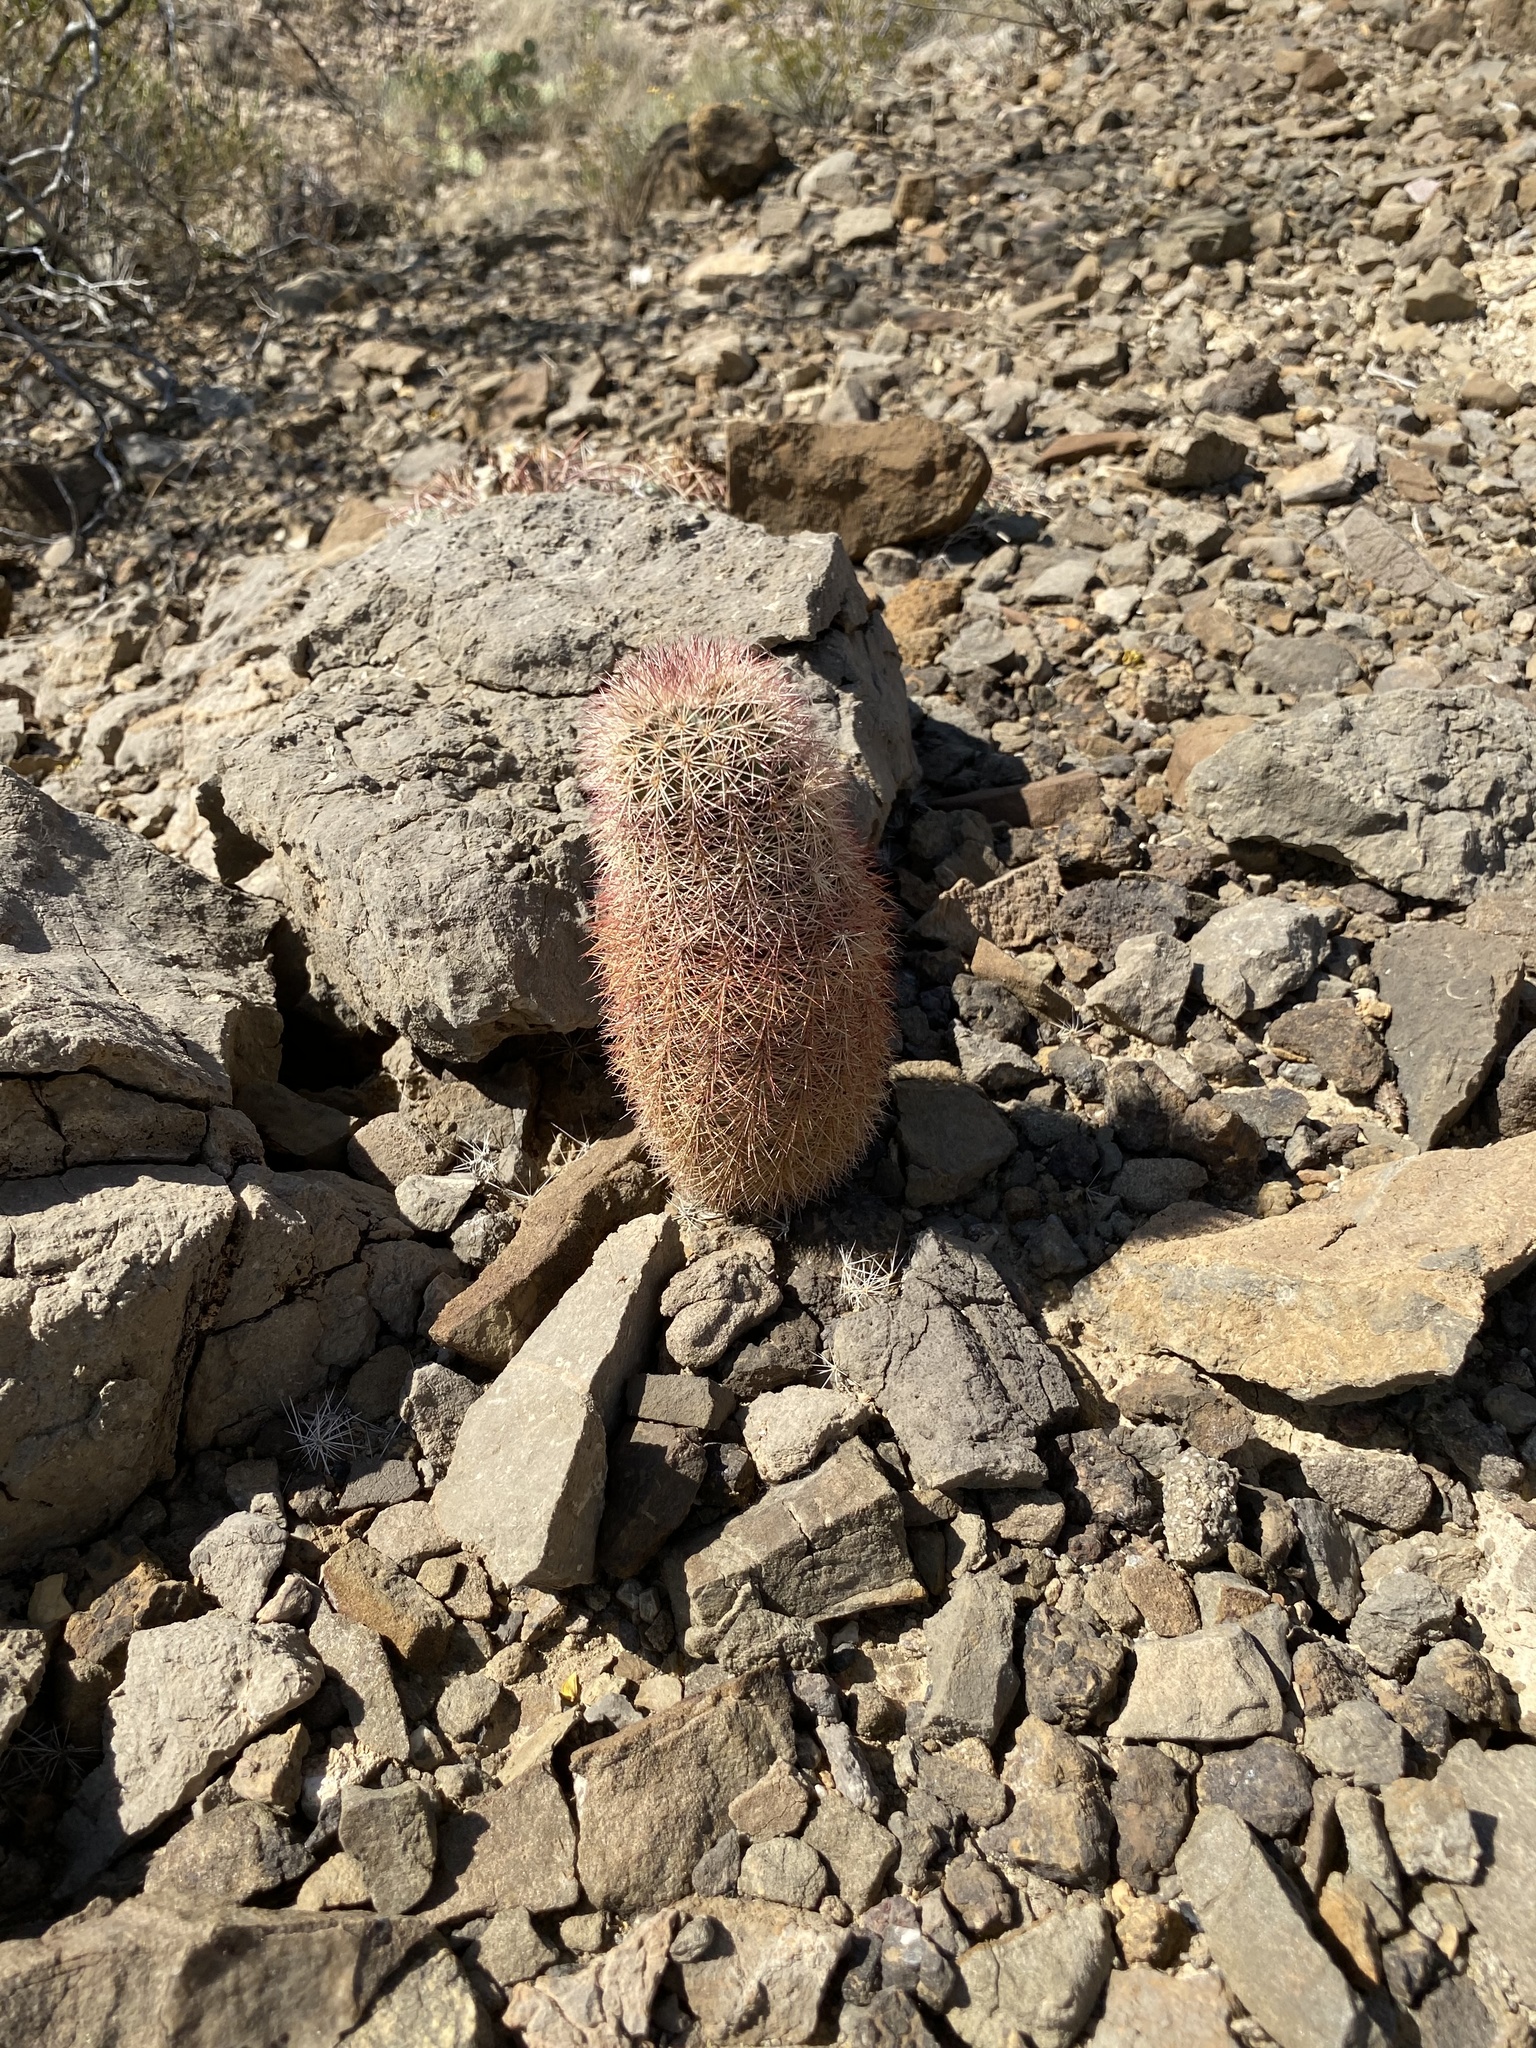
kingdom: Plantae
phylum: Tracheophyta
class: Magnoliopsida
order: Caryophyllales
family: Cactaceae
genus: Echinocereus
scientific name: Echinocereus dasyacanthus
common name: Spiny hedgehog cactus
